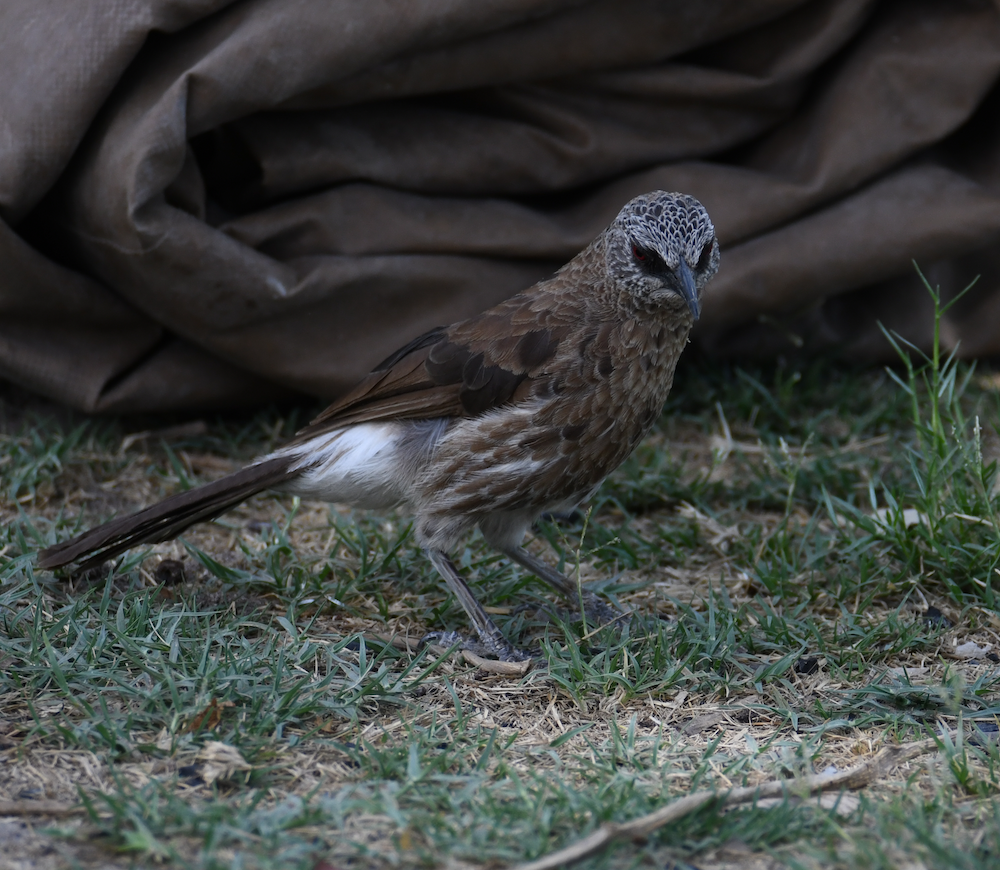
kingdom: Animalia
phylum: Chordata
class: Aves
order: Passeriformes
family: Leiothrichidae
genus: Turdoides
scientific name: Turdoides hartlaubii
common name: Hartlaub's babbler
